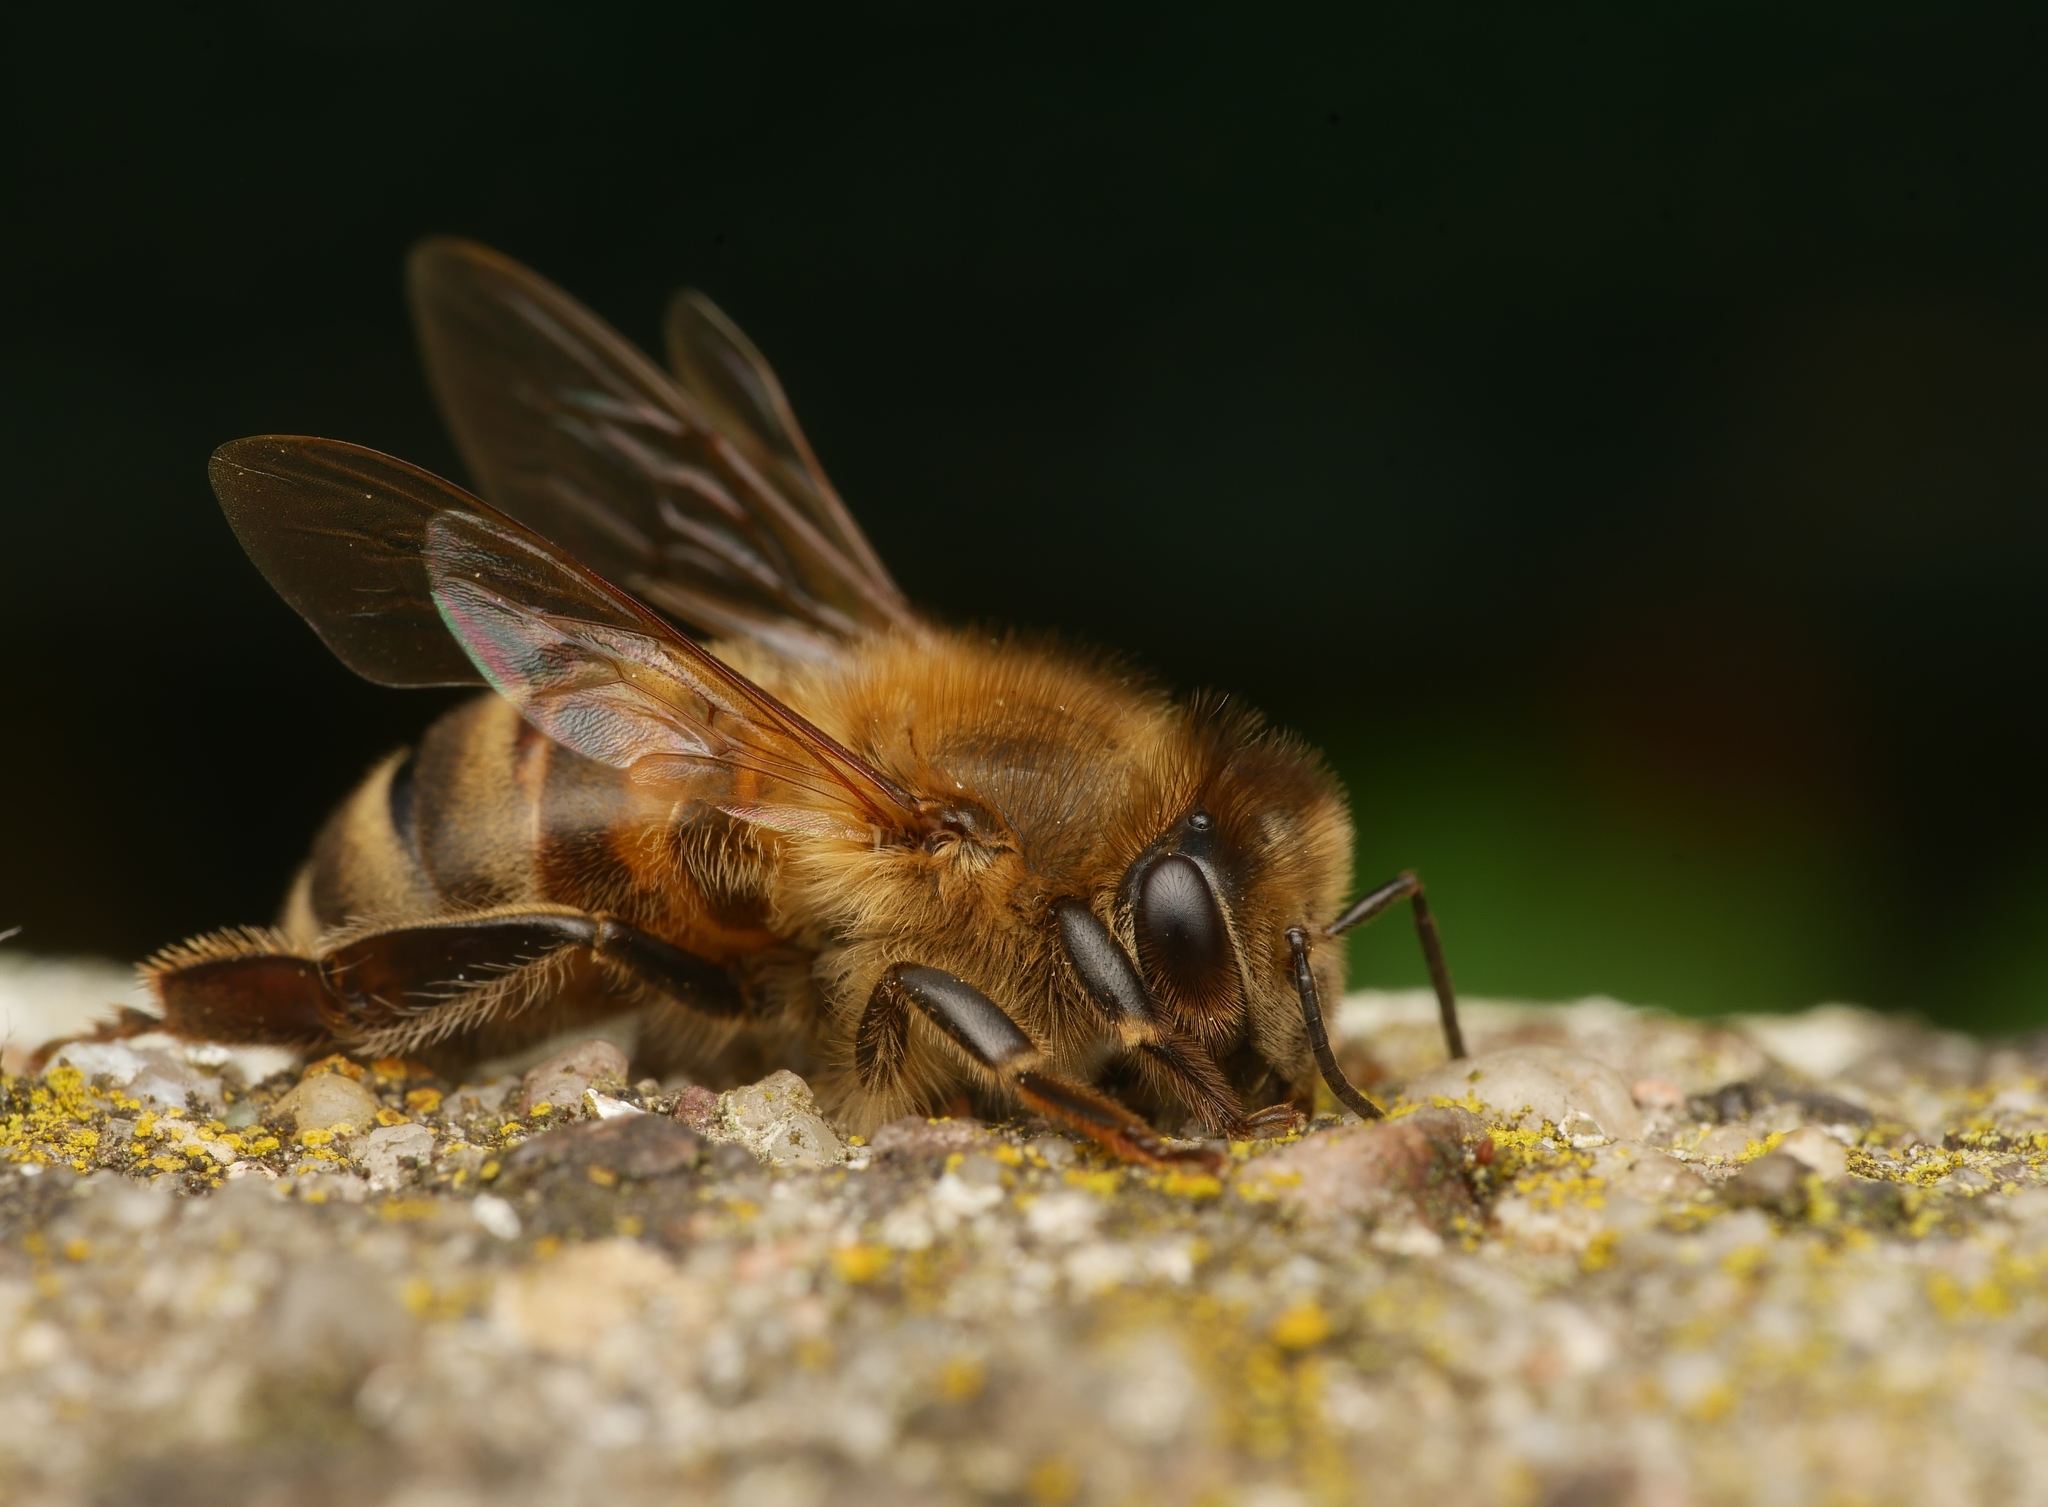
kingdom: Animalia
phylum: Arthropoda
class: Insecta
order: Hymenoptera
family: Apidae
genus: Apis
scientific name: Apis mellifera
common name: Honey bee
